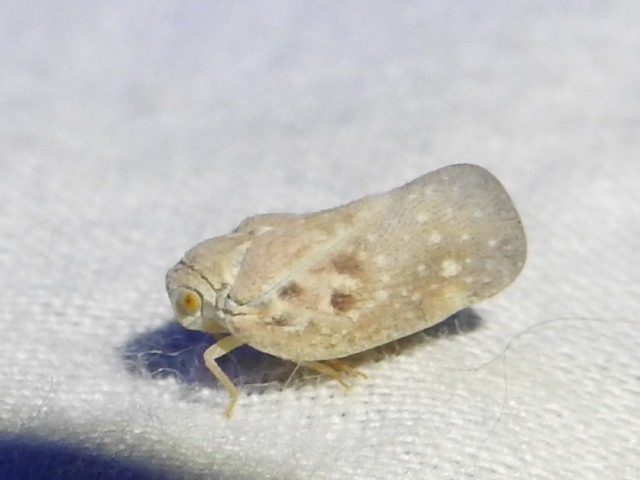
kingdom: Animalia
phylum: Arthropoda
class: Insecta
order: Hemiptera
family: Flatidae
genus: Metcalfa
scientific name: Metcalfa pruinosa
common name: Citrus flatid planthopper
